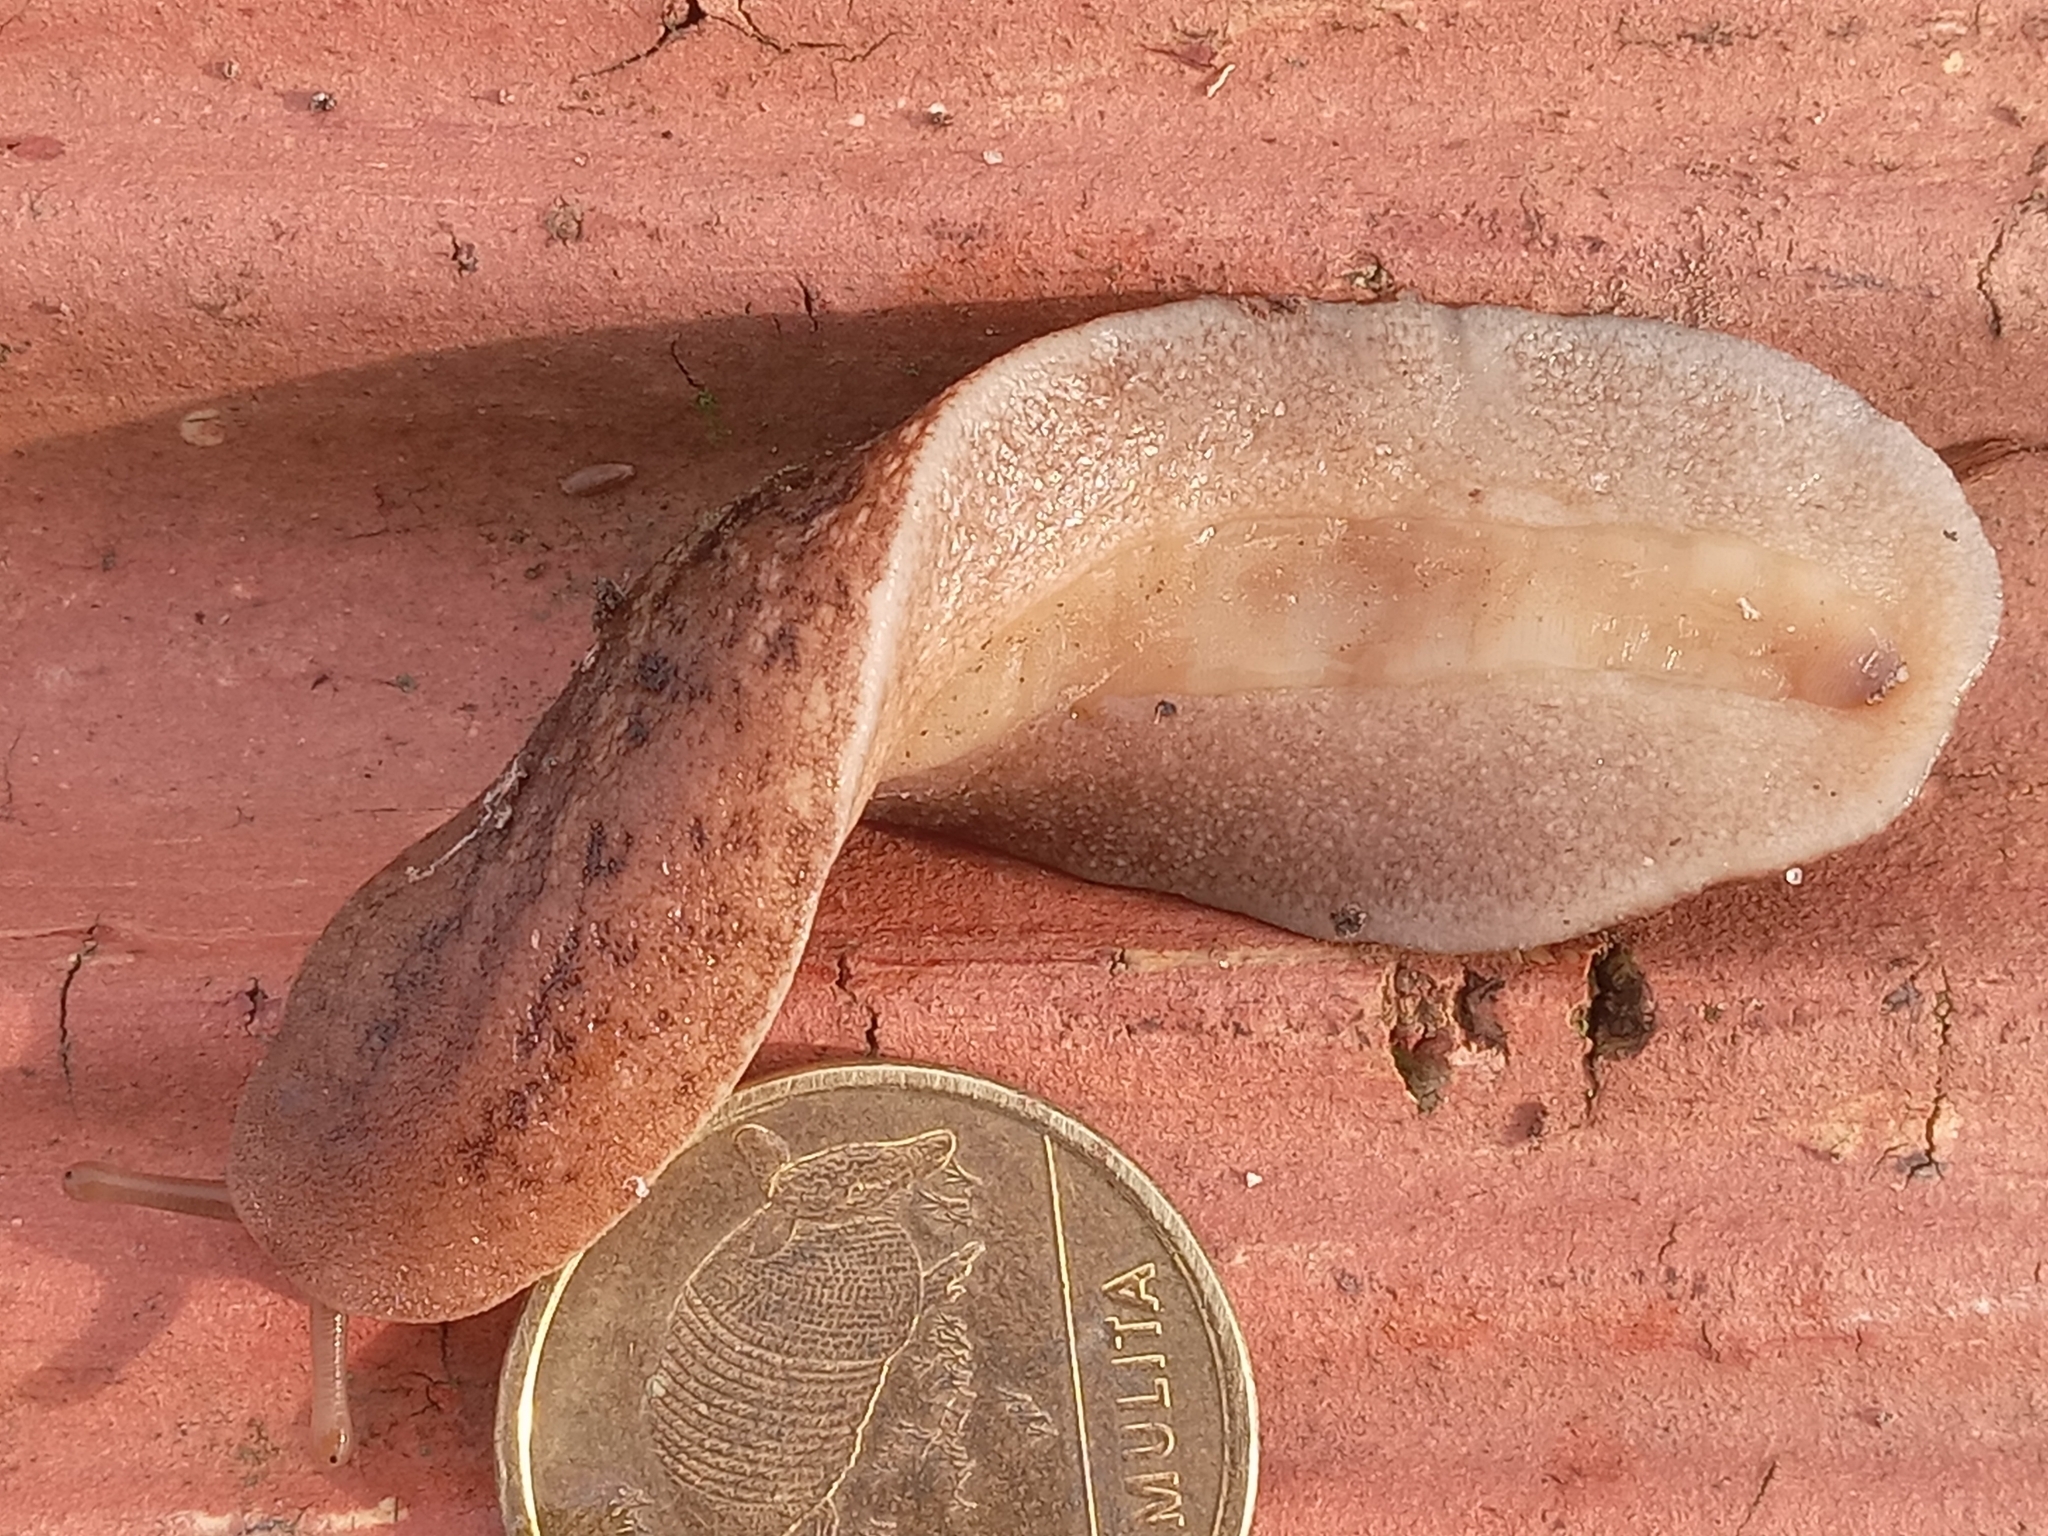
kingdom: Animalia
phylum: Mollusca
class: Gastropoda
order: Systellommatophora
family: Veronicellidae
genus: Phyllocaulis
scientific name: Phyllocaulis soleiformis
